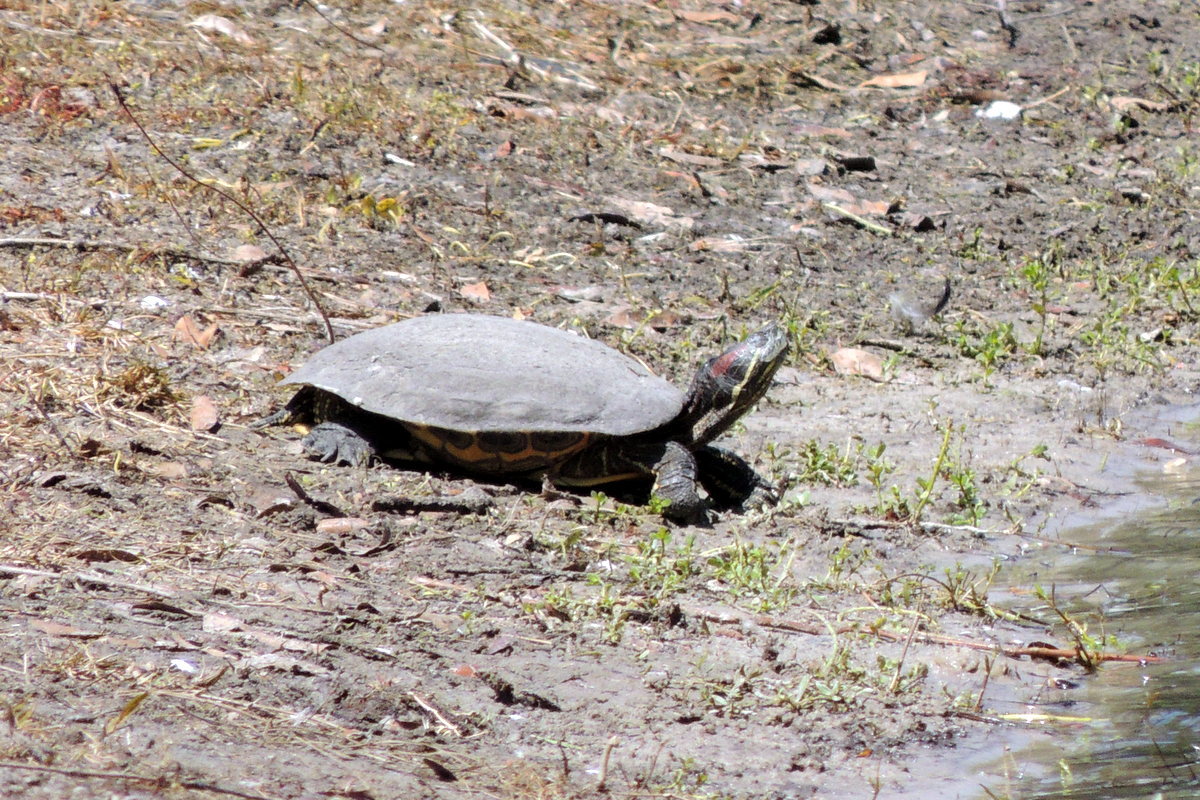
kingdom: Animalia
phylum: Chordata
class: Testudines
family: Emydidae
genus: Trachemys
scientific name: Trachemys scripta
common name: Slider
